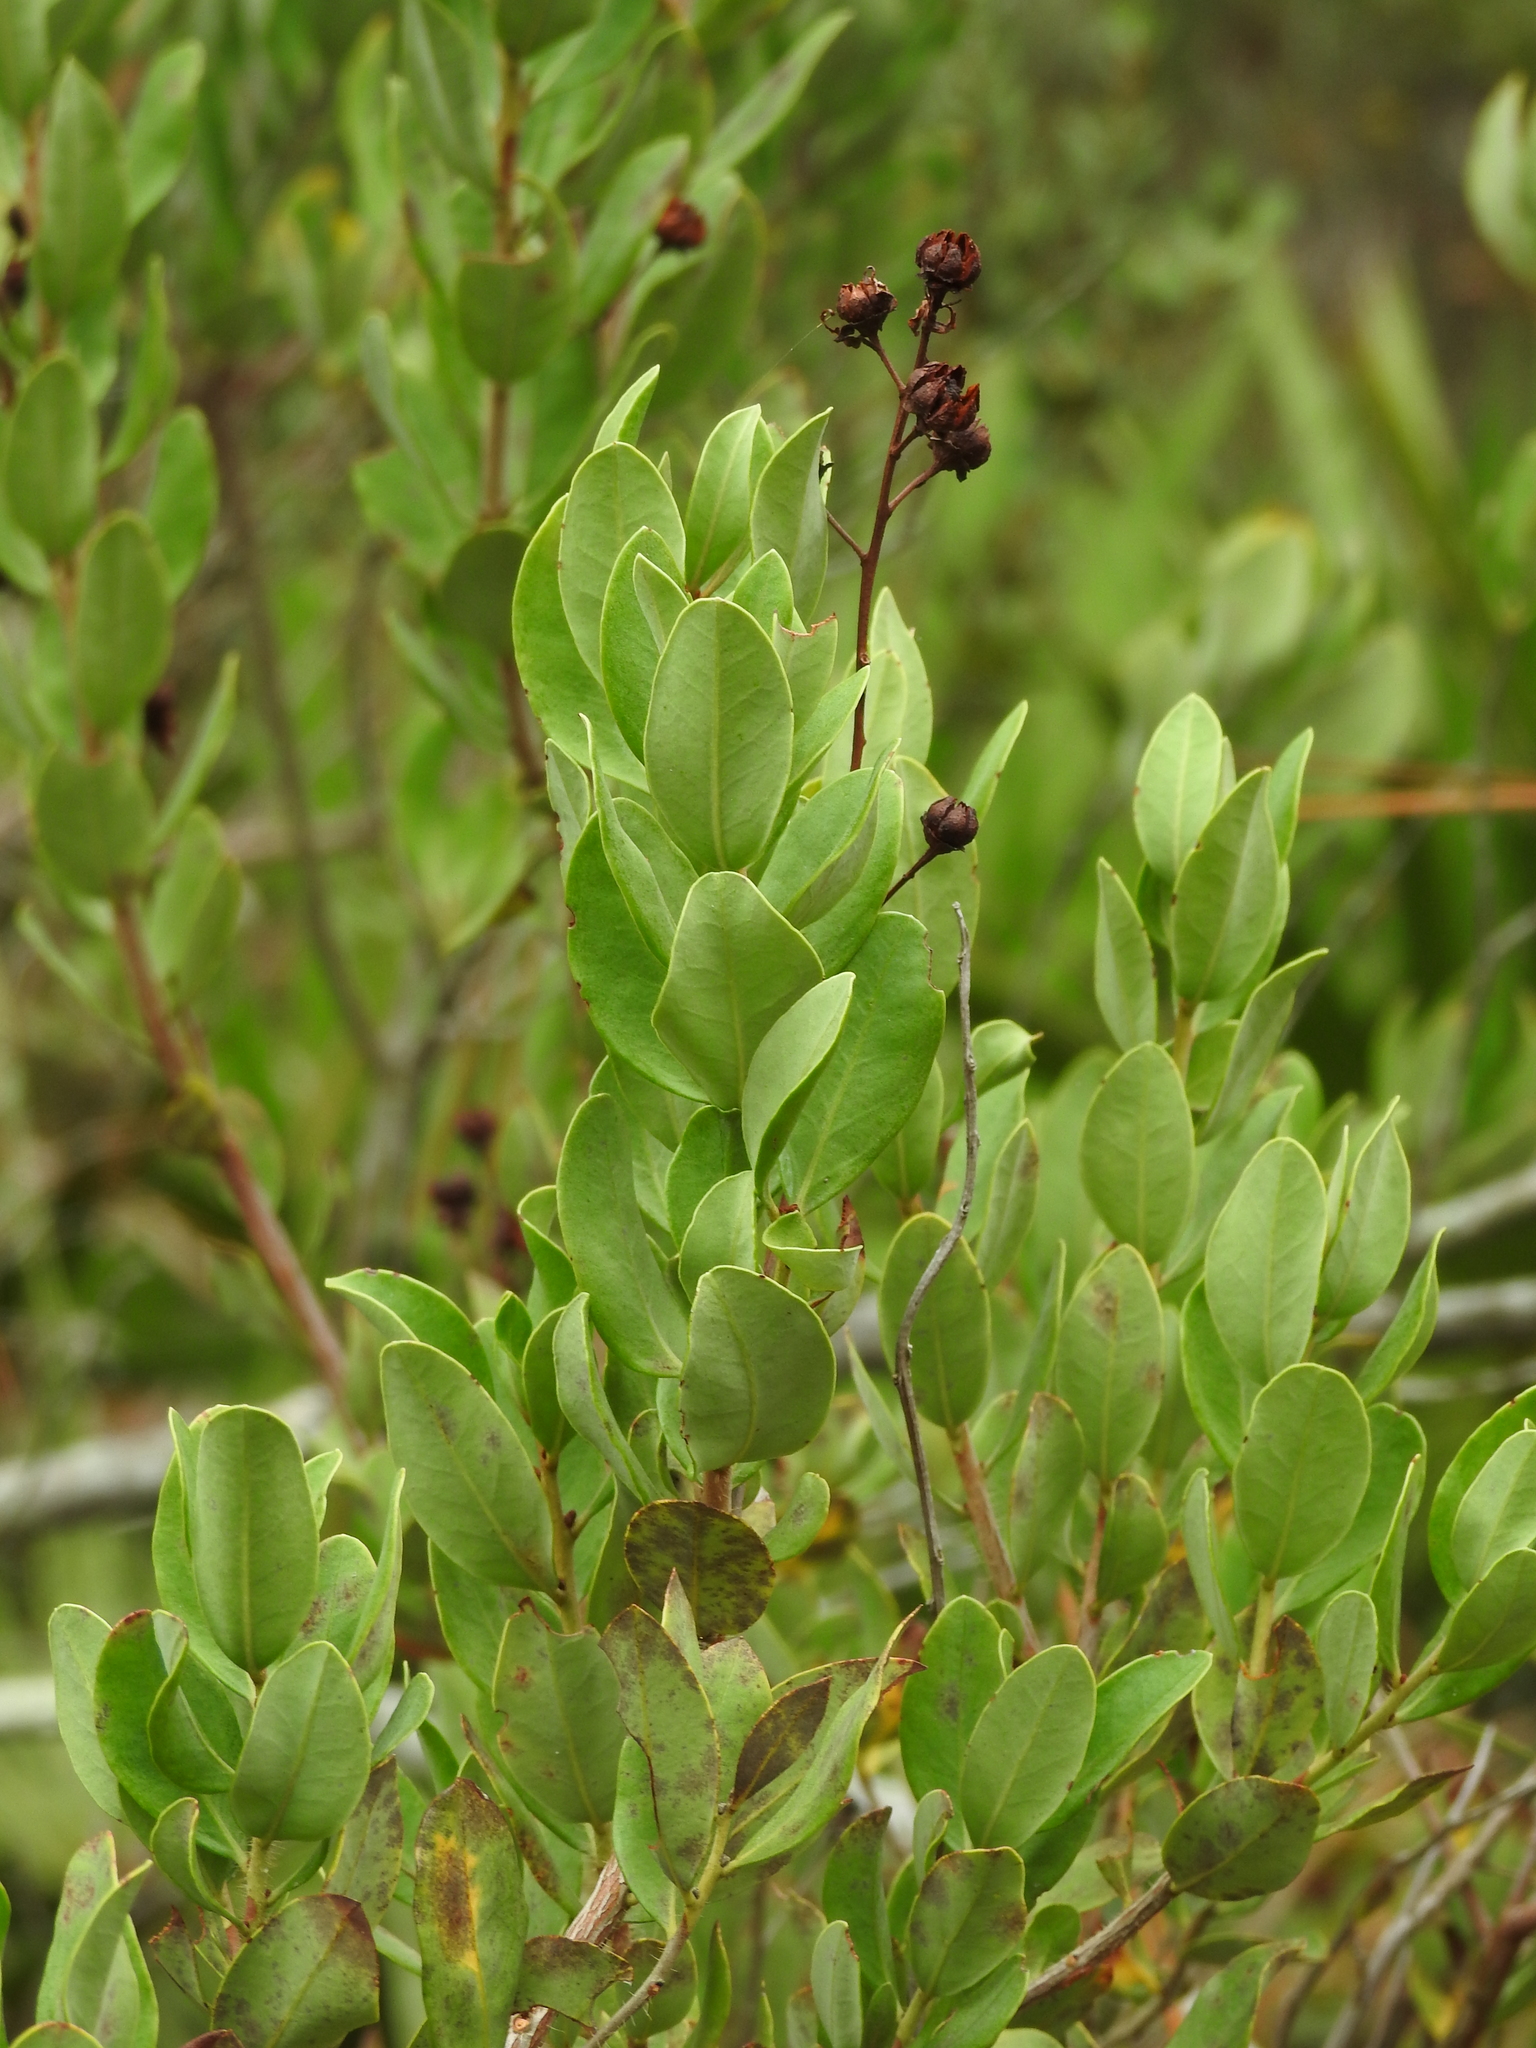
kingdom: Plantae
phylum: Tracheophyta
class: Magnoliopsida
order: Ericales
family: Ericaceae
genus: Bejaria
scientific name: Bejaria racemosa
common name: Tarflower
